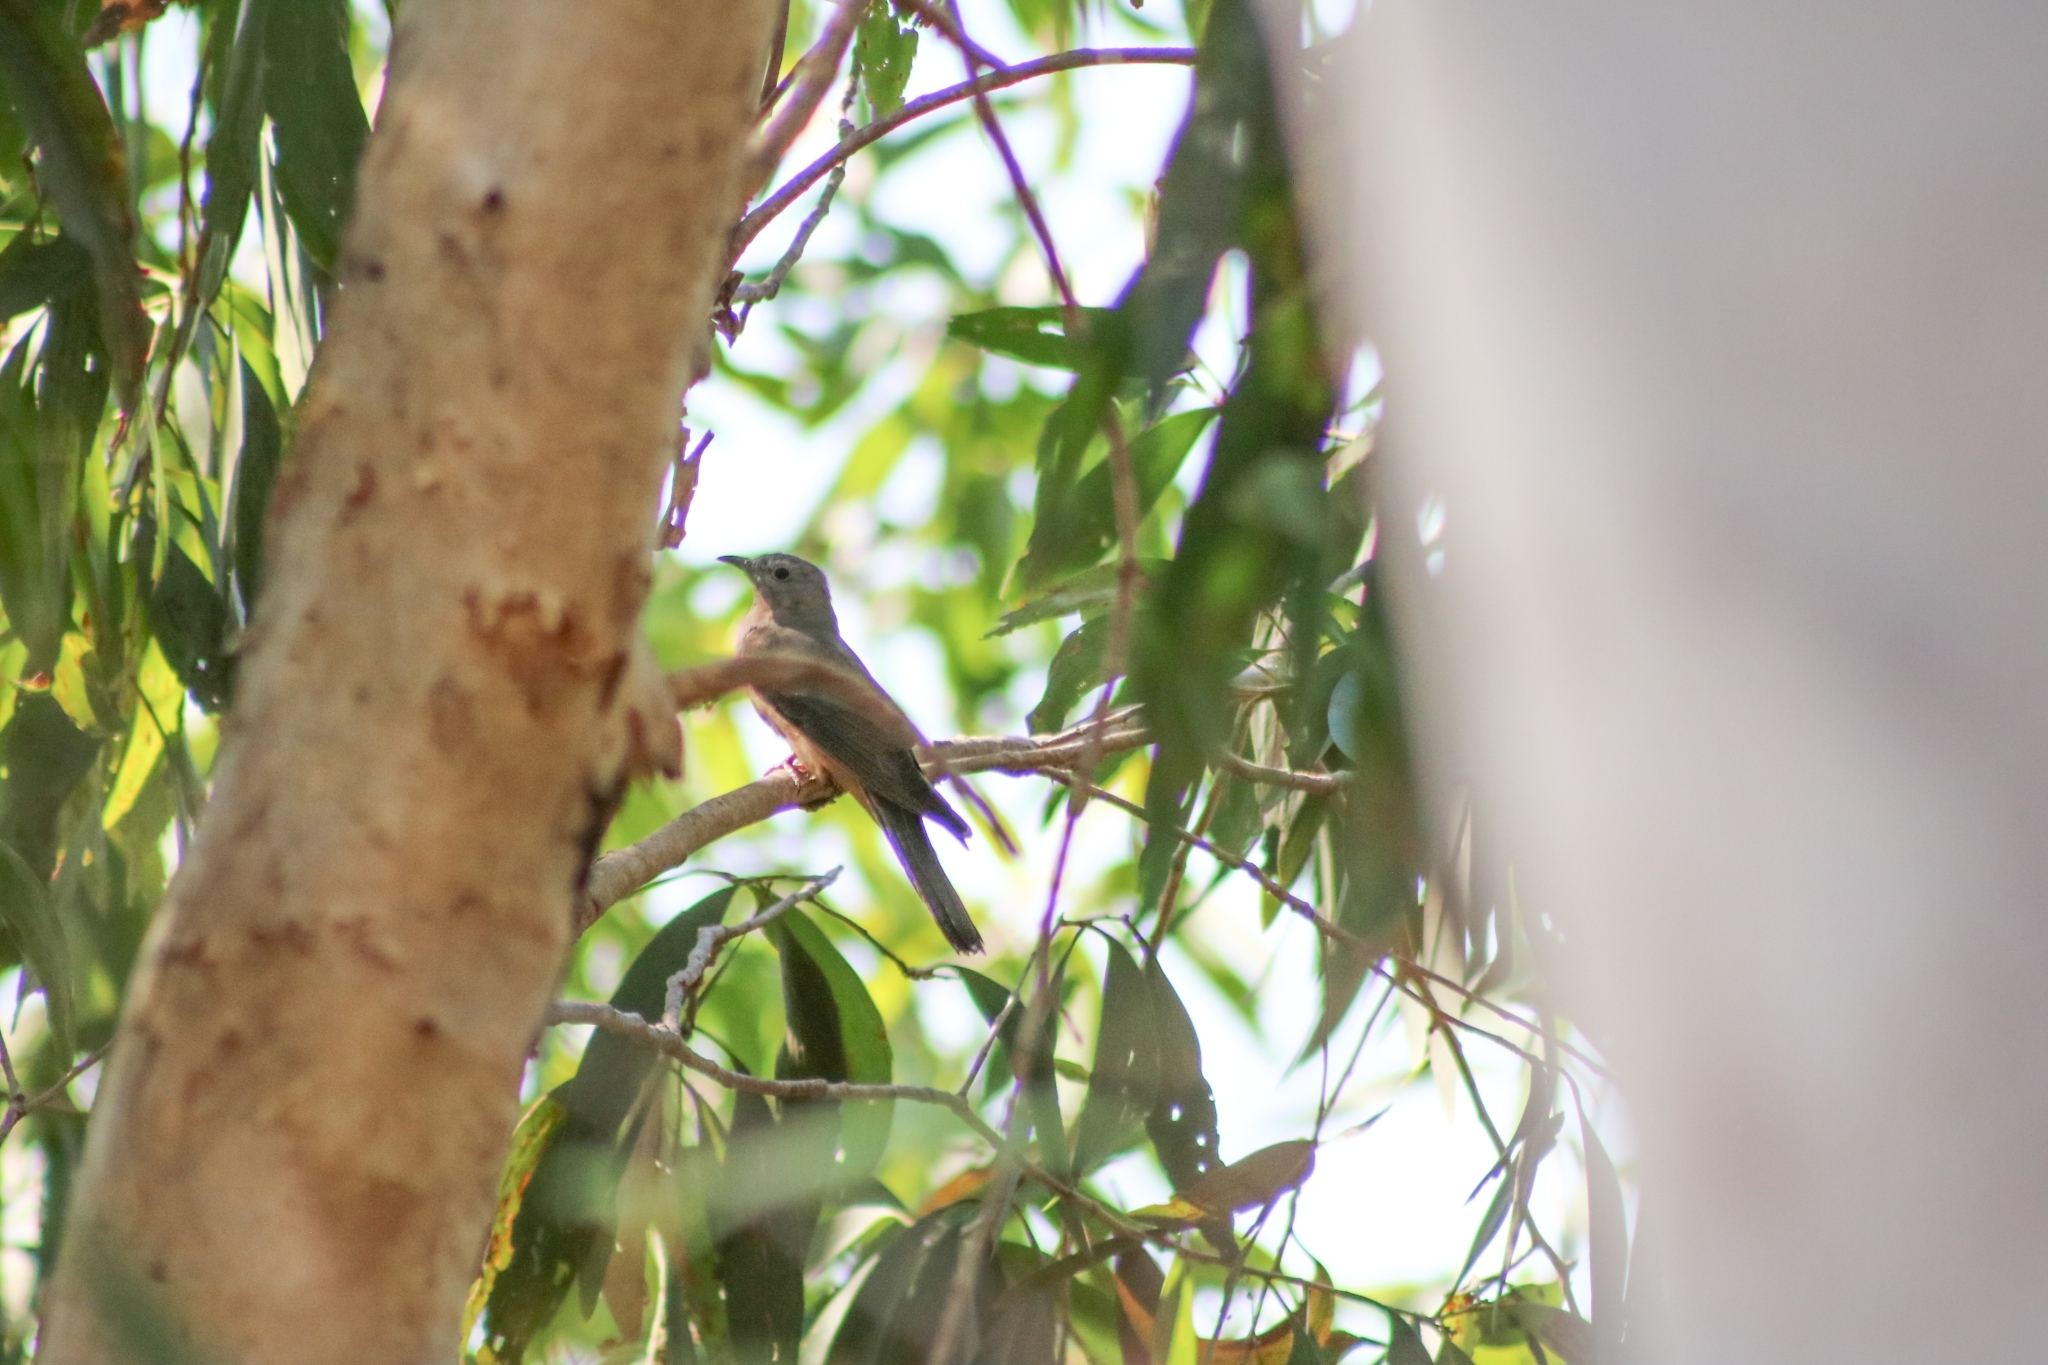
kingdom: Animalia
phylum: Chordata
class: Aves
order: Cuculiformes
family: Cuculidae
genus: Cacomantis
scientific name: Cacomantis variolosus
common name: Brush cuckoo
